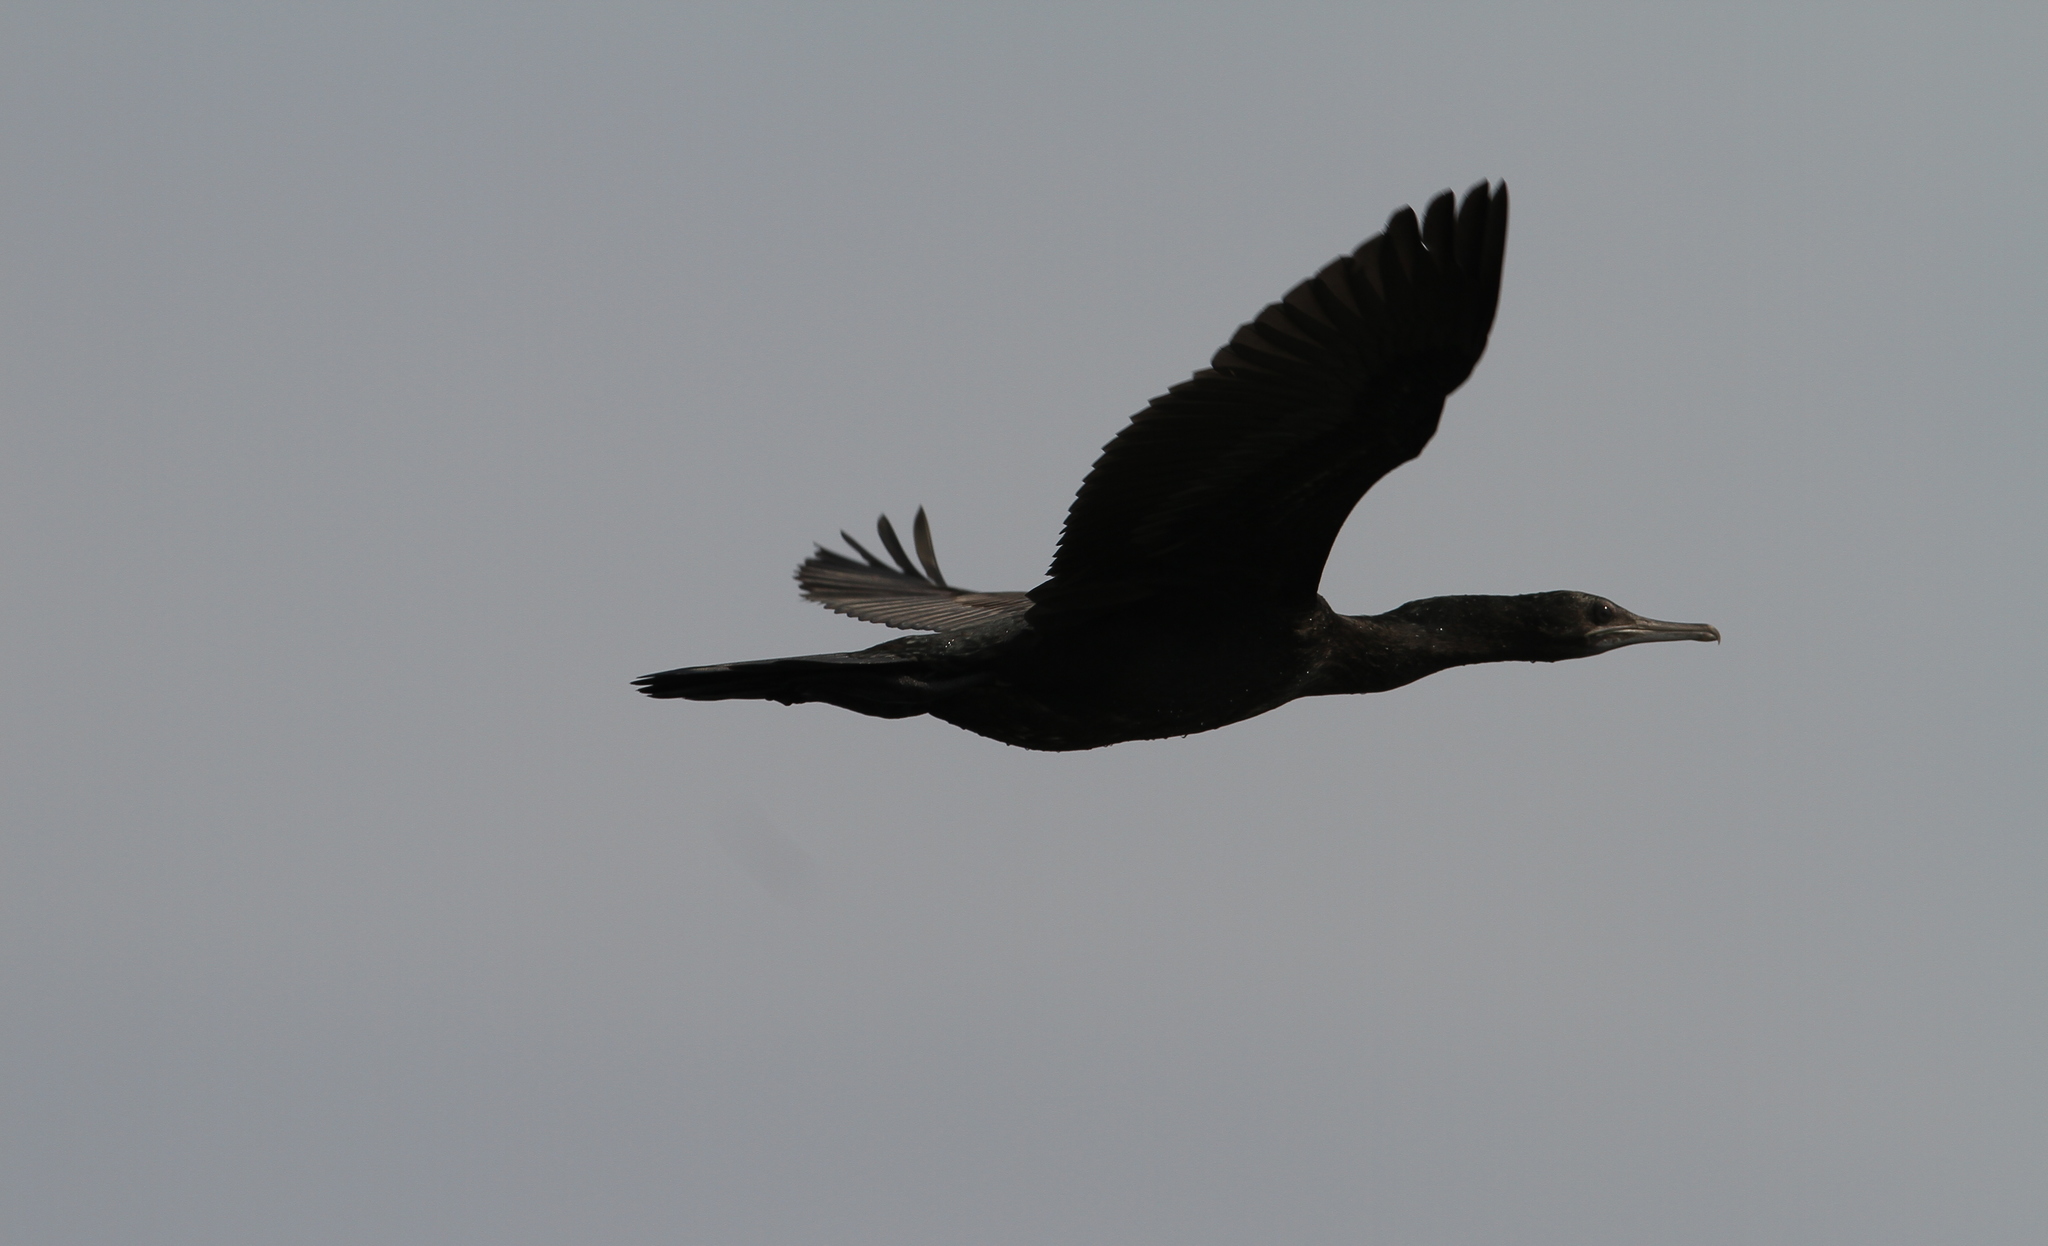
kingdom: Animalia
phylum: Chordata
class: Aves
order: Suliformes
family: Phalacrocoracidae
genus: Phalacrocorax
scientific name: Phalacrocorax sulcirostris
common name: Little black cormorant
